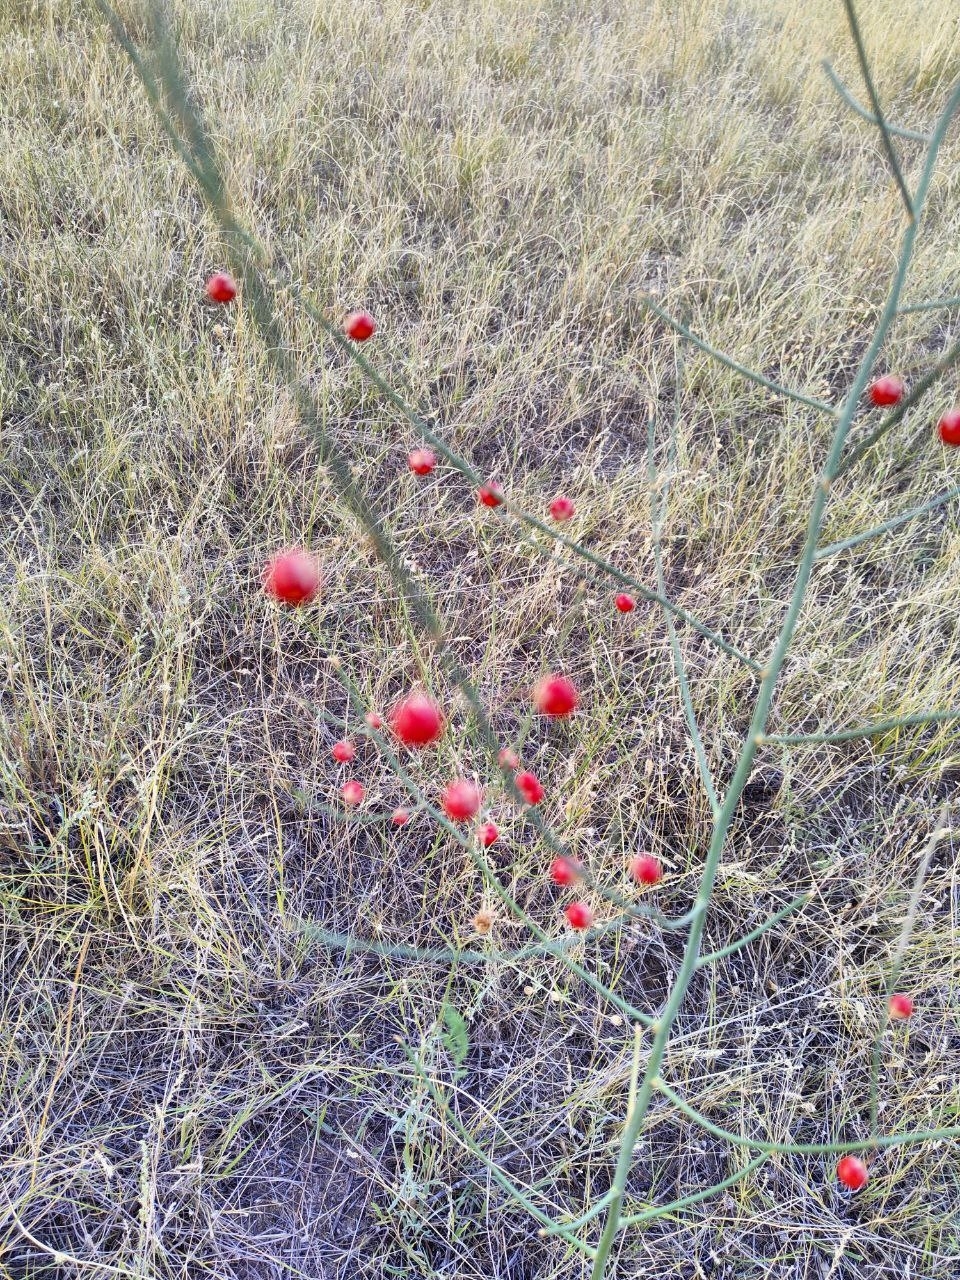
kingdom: Plantae
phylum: Tracheophyta
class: Liliopsida
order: Asparagales
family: Asparagaceae
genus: Asparagus
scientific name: Asparagus officinalis
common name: Garden asparagus
